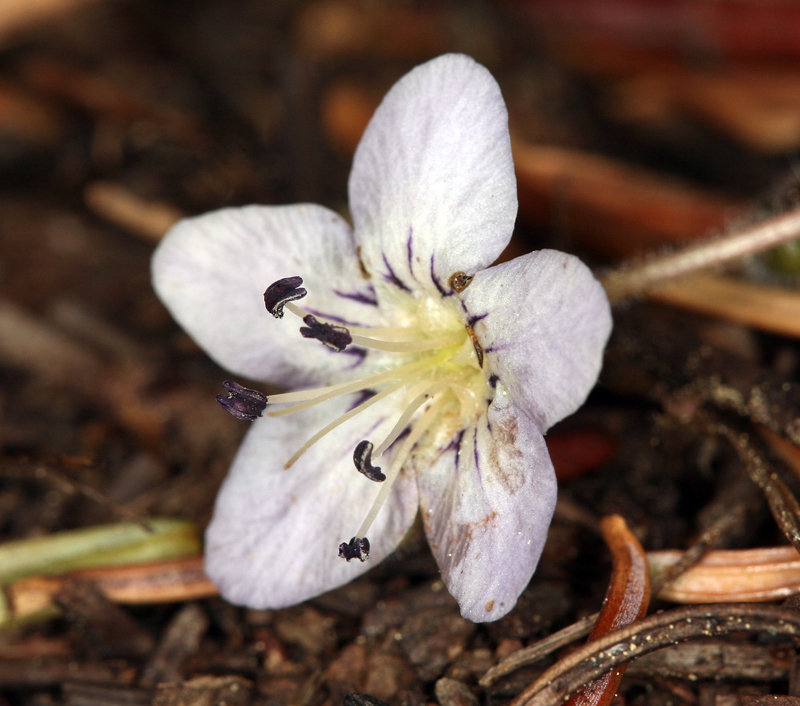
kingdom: Plantae
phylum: Tracheophyta
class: Magnoliopsida
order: Boraginales
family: Hydrophyllaceae
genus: Howellanthus
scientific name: Howellanthus dalesianus
